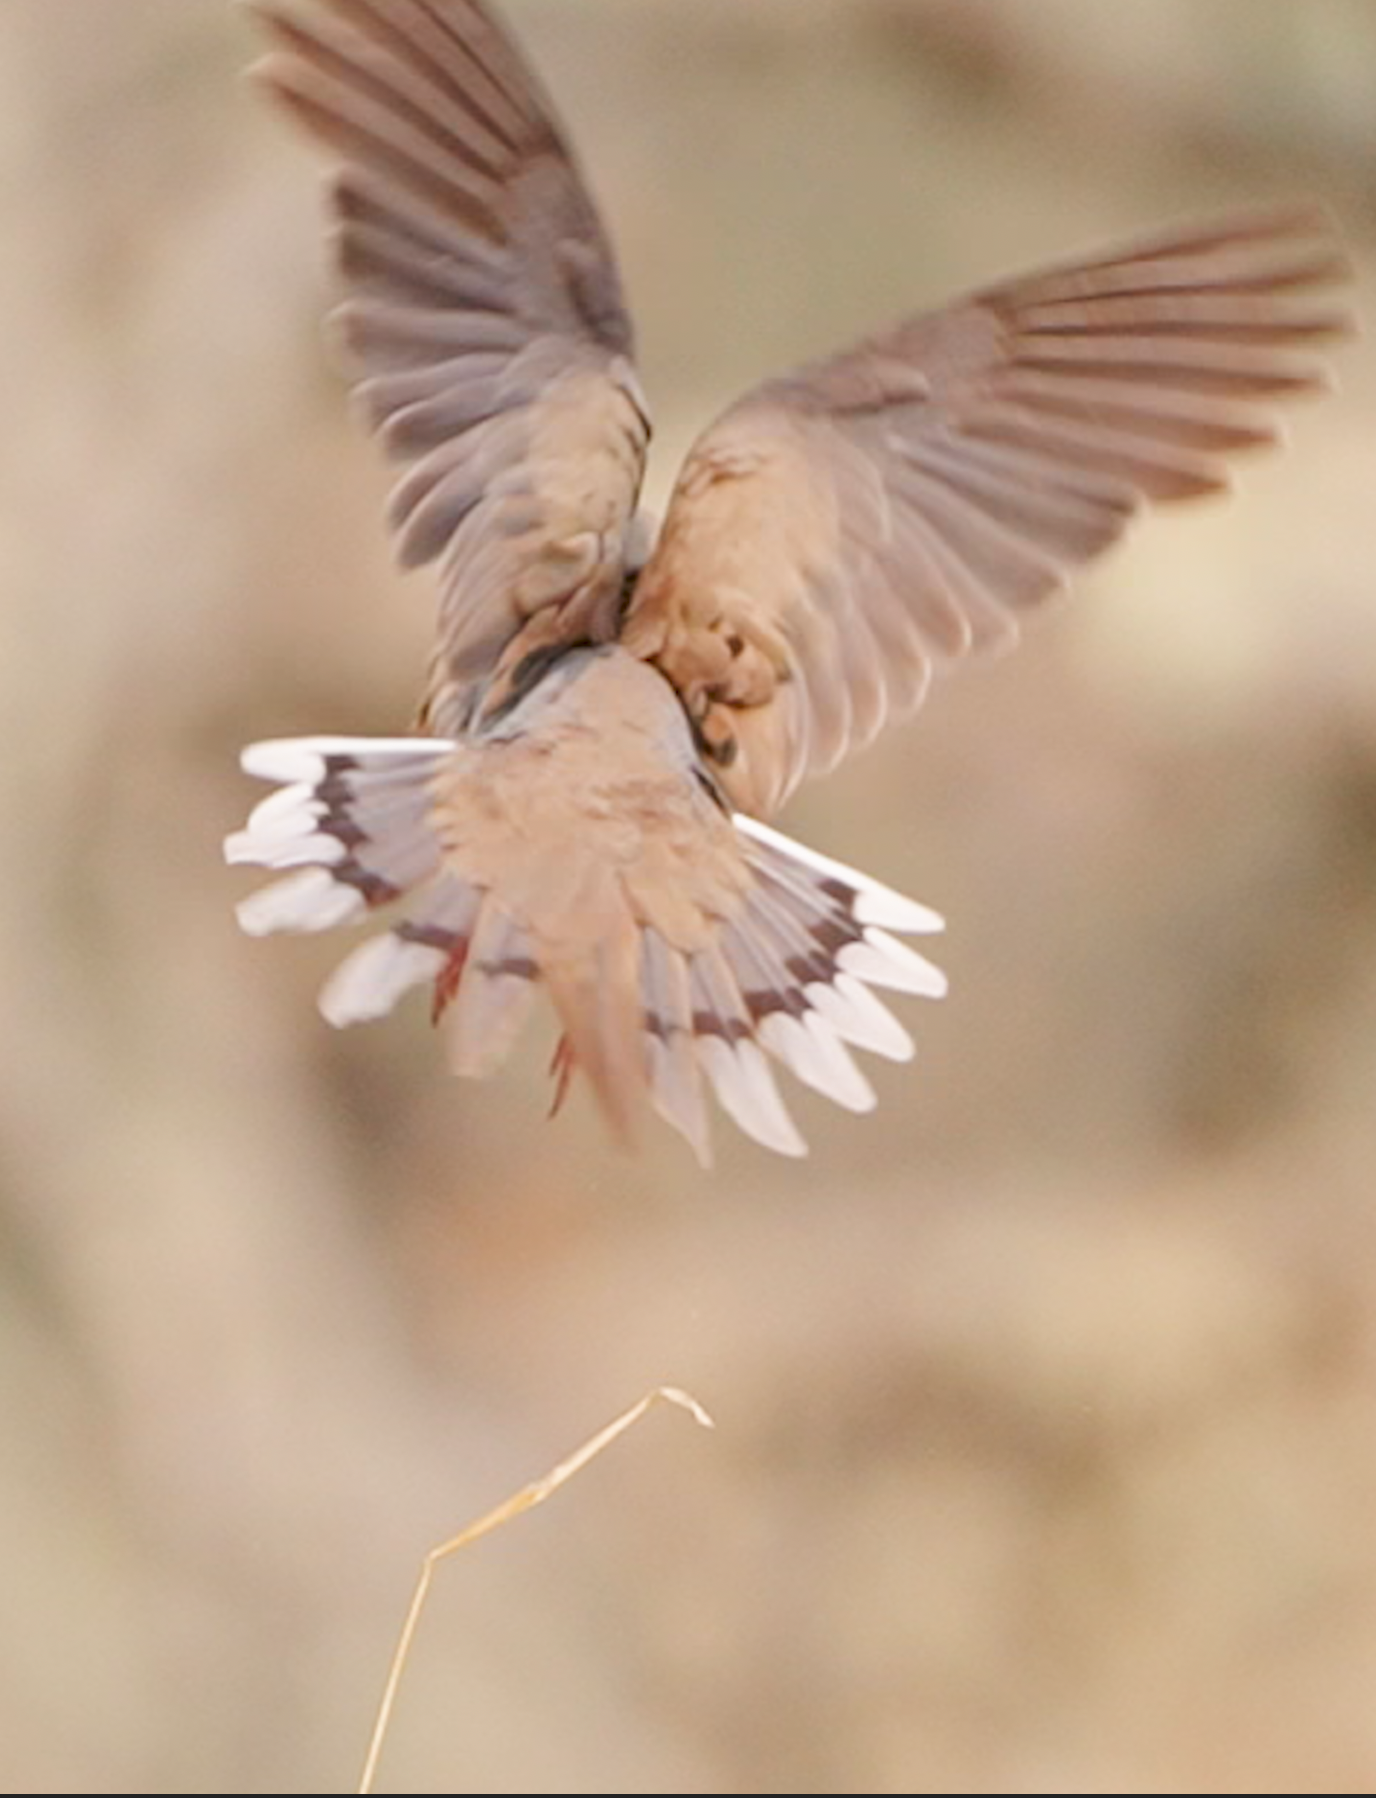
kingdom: Animalia
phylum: Chordata
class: Aves
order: Columbiformes
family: Columbidae
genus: Zenaida
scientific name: Zenaida macroura
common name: Mourning dove
